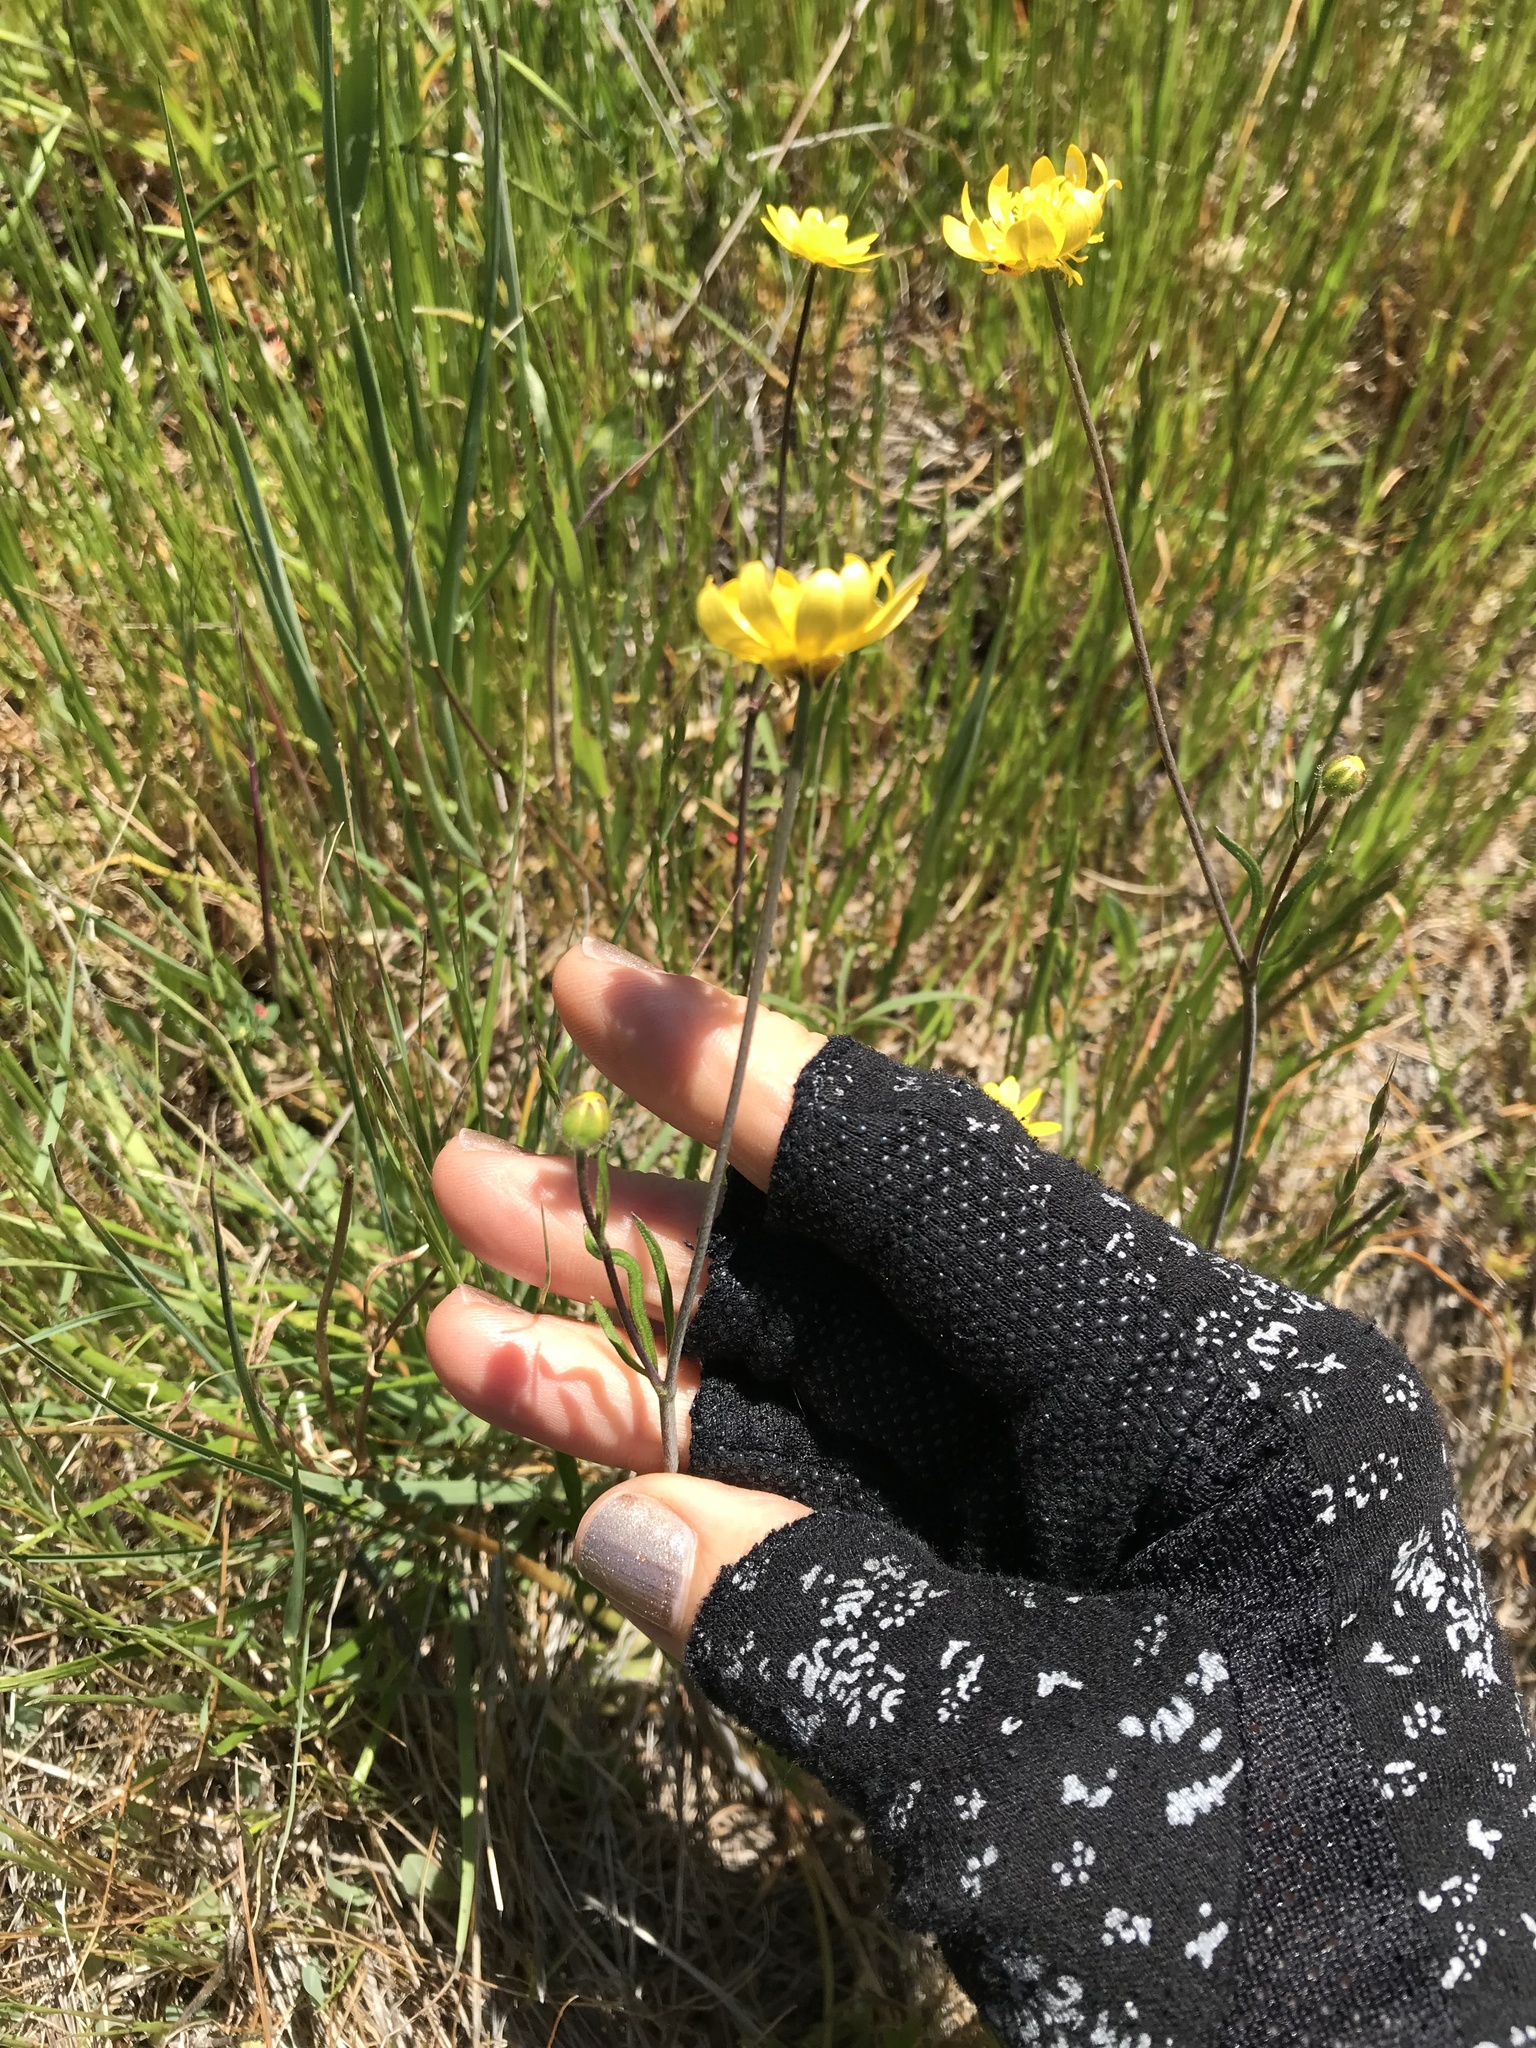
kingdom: Plantae
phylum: Tracheophyta
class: Magnoliopsida
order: Ranunculales
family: Ranunculaceae
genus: Ranunculus
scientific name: Ranunculus californicus
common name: California buttercup
